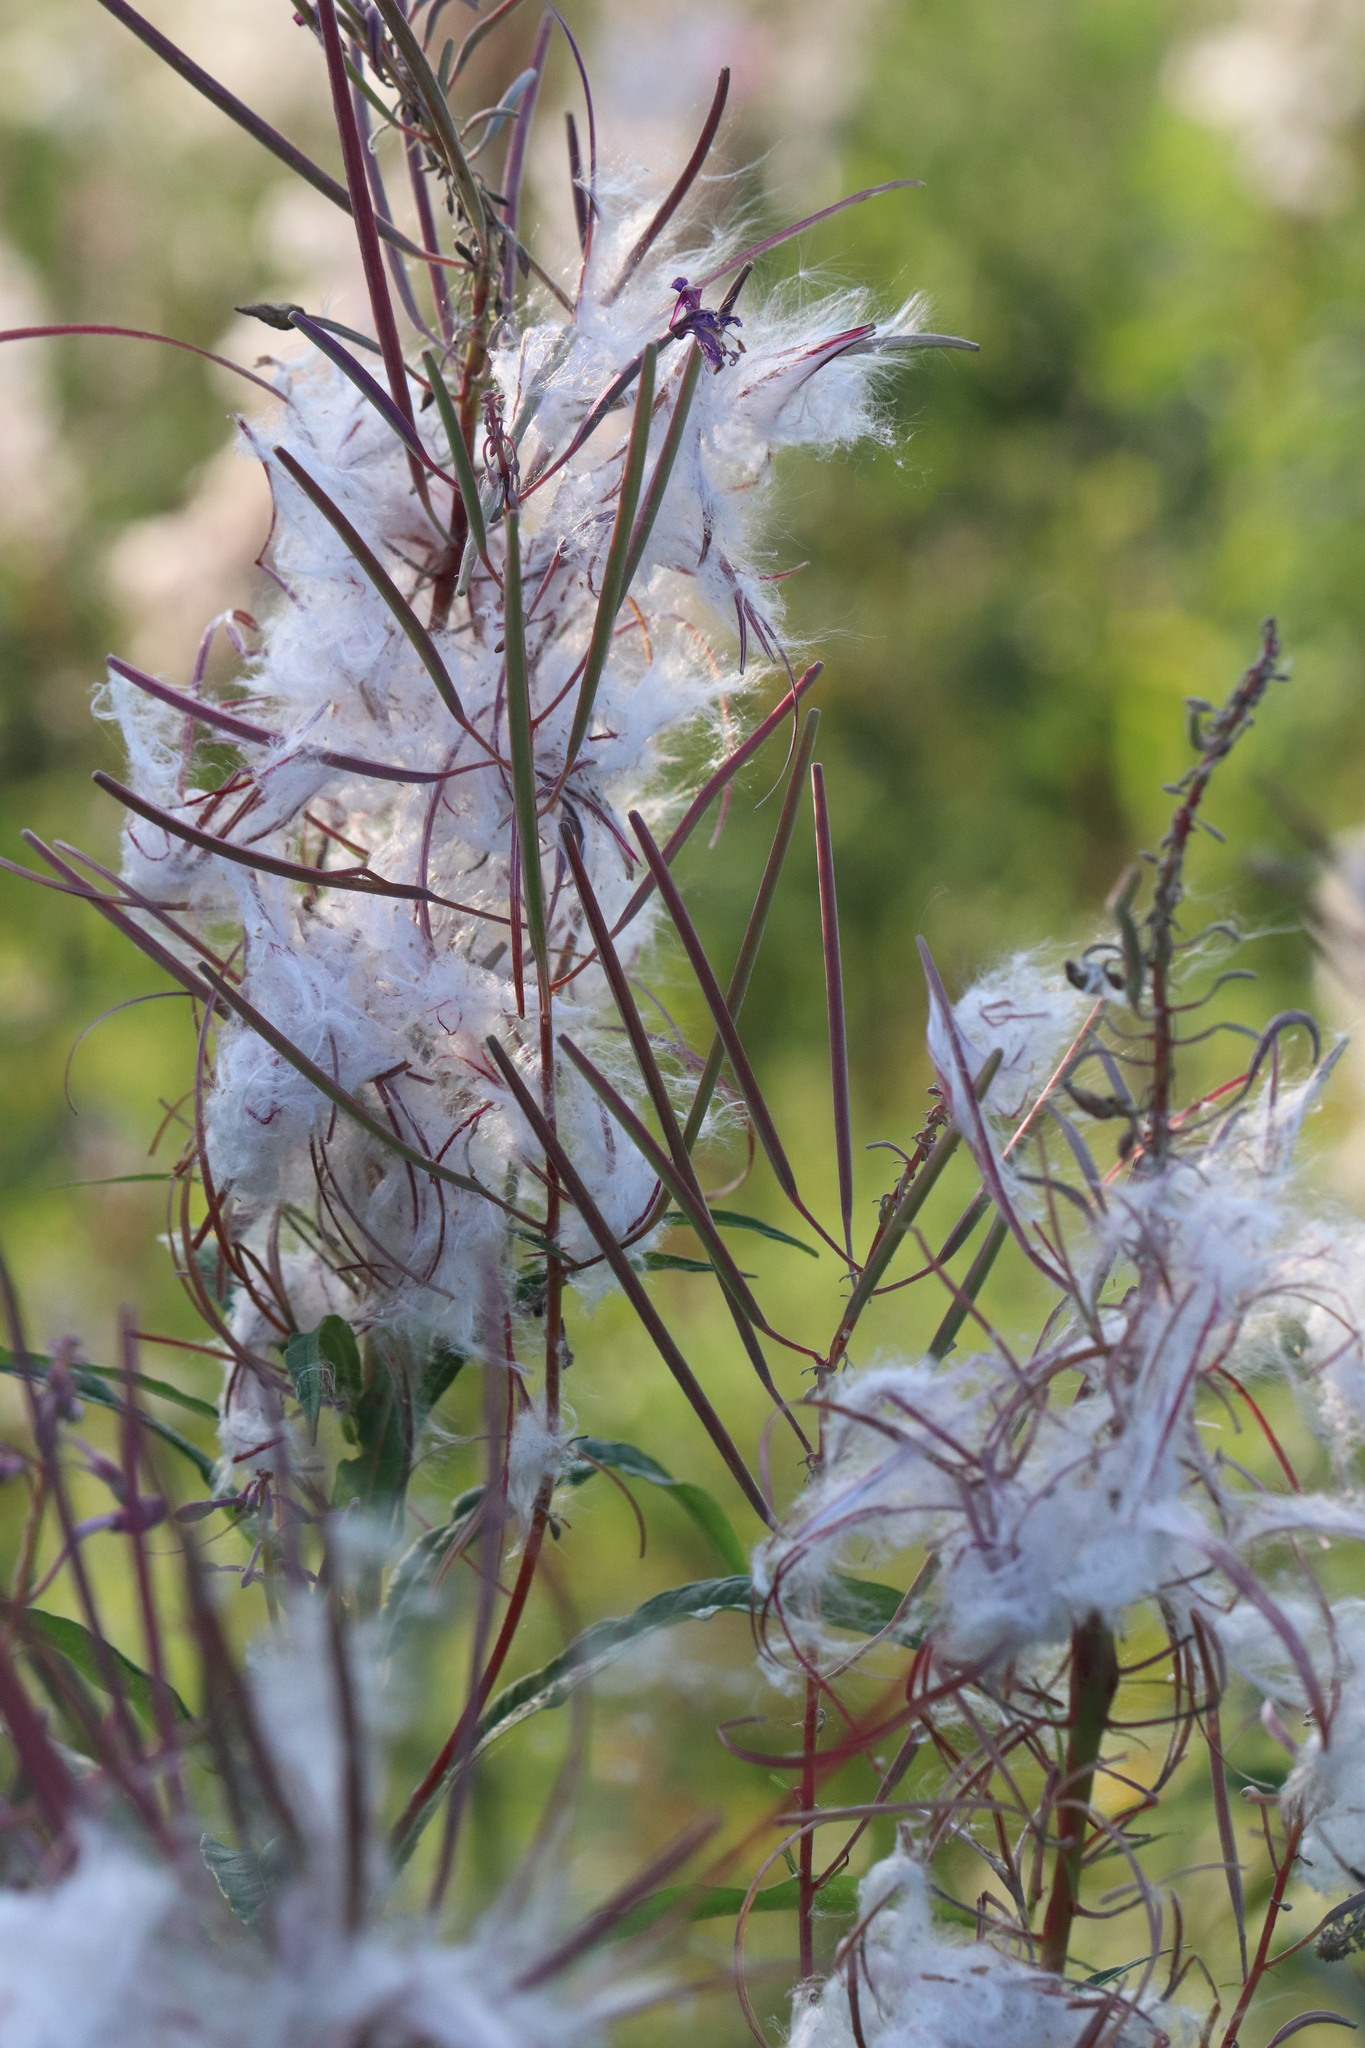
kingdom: Plantae
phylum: Tracheophyta
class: Magnoliopsida
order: Myrtales
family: Onagraceae
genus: Chamaenerion
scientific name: Chamaenerion angustifolium
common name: Fireweed
